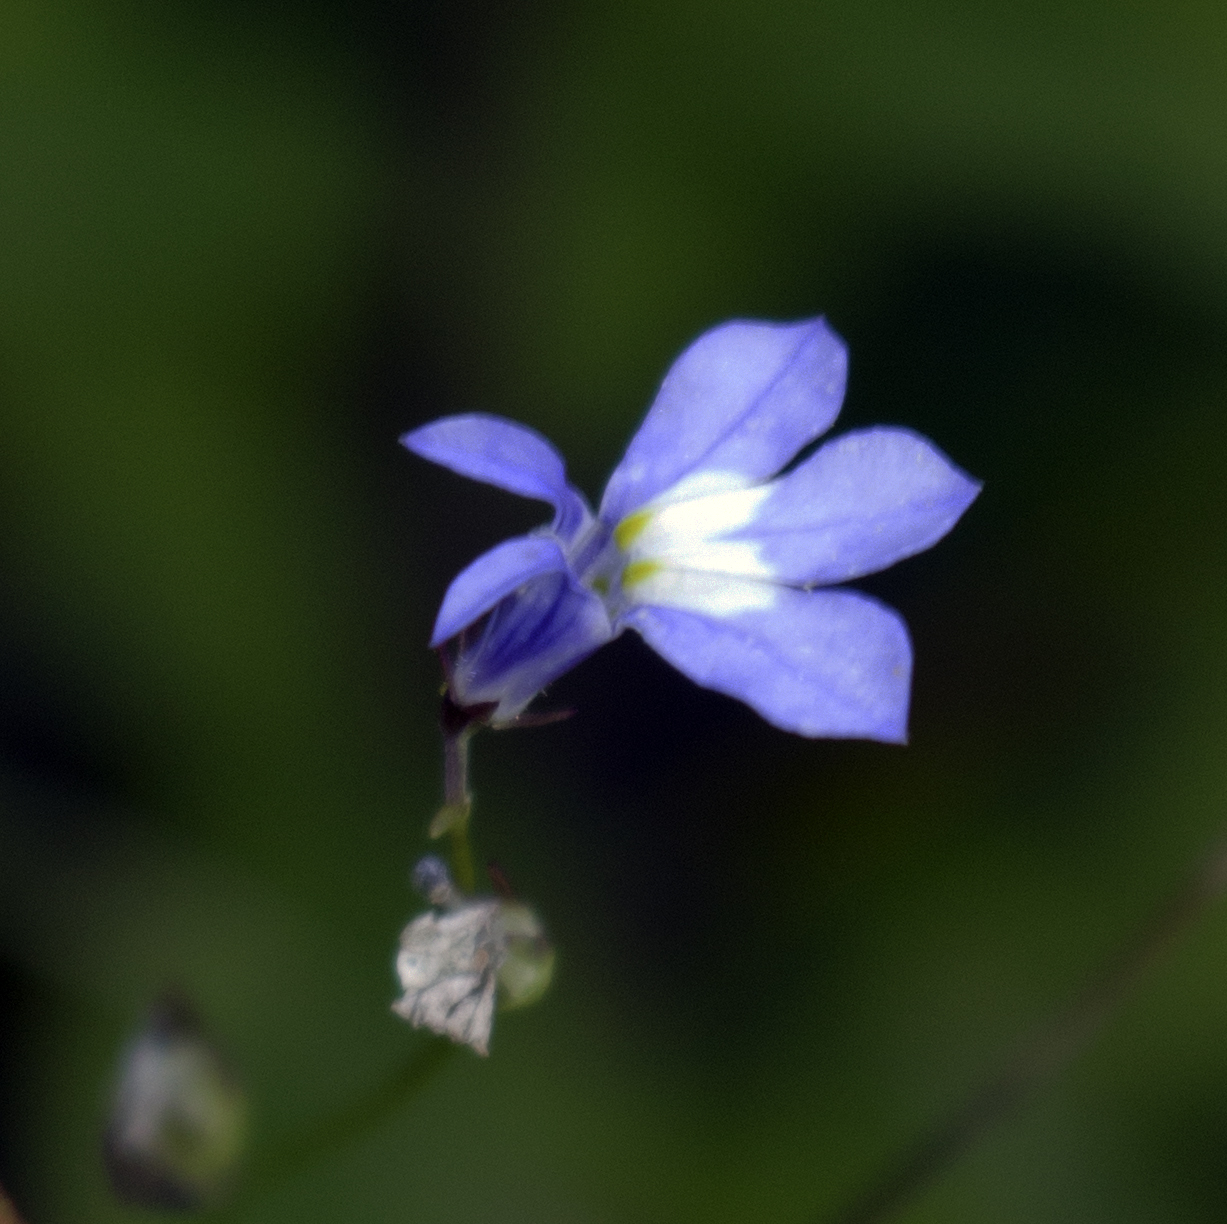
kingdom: Plantae
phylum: Tracheophyta
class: Magnoliopsida
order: Asterales
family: Campanulaceae
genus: Lobelia
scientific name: Lobelia kalmii
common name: Kalm's lobelia
